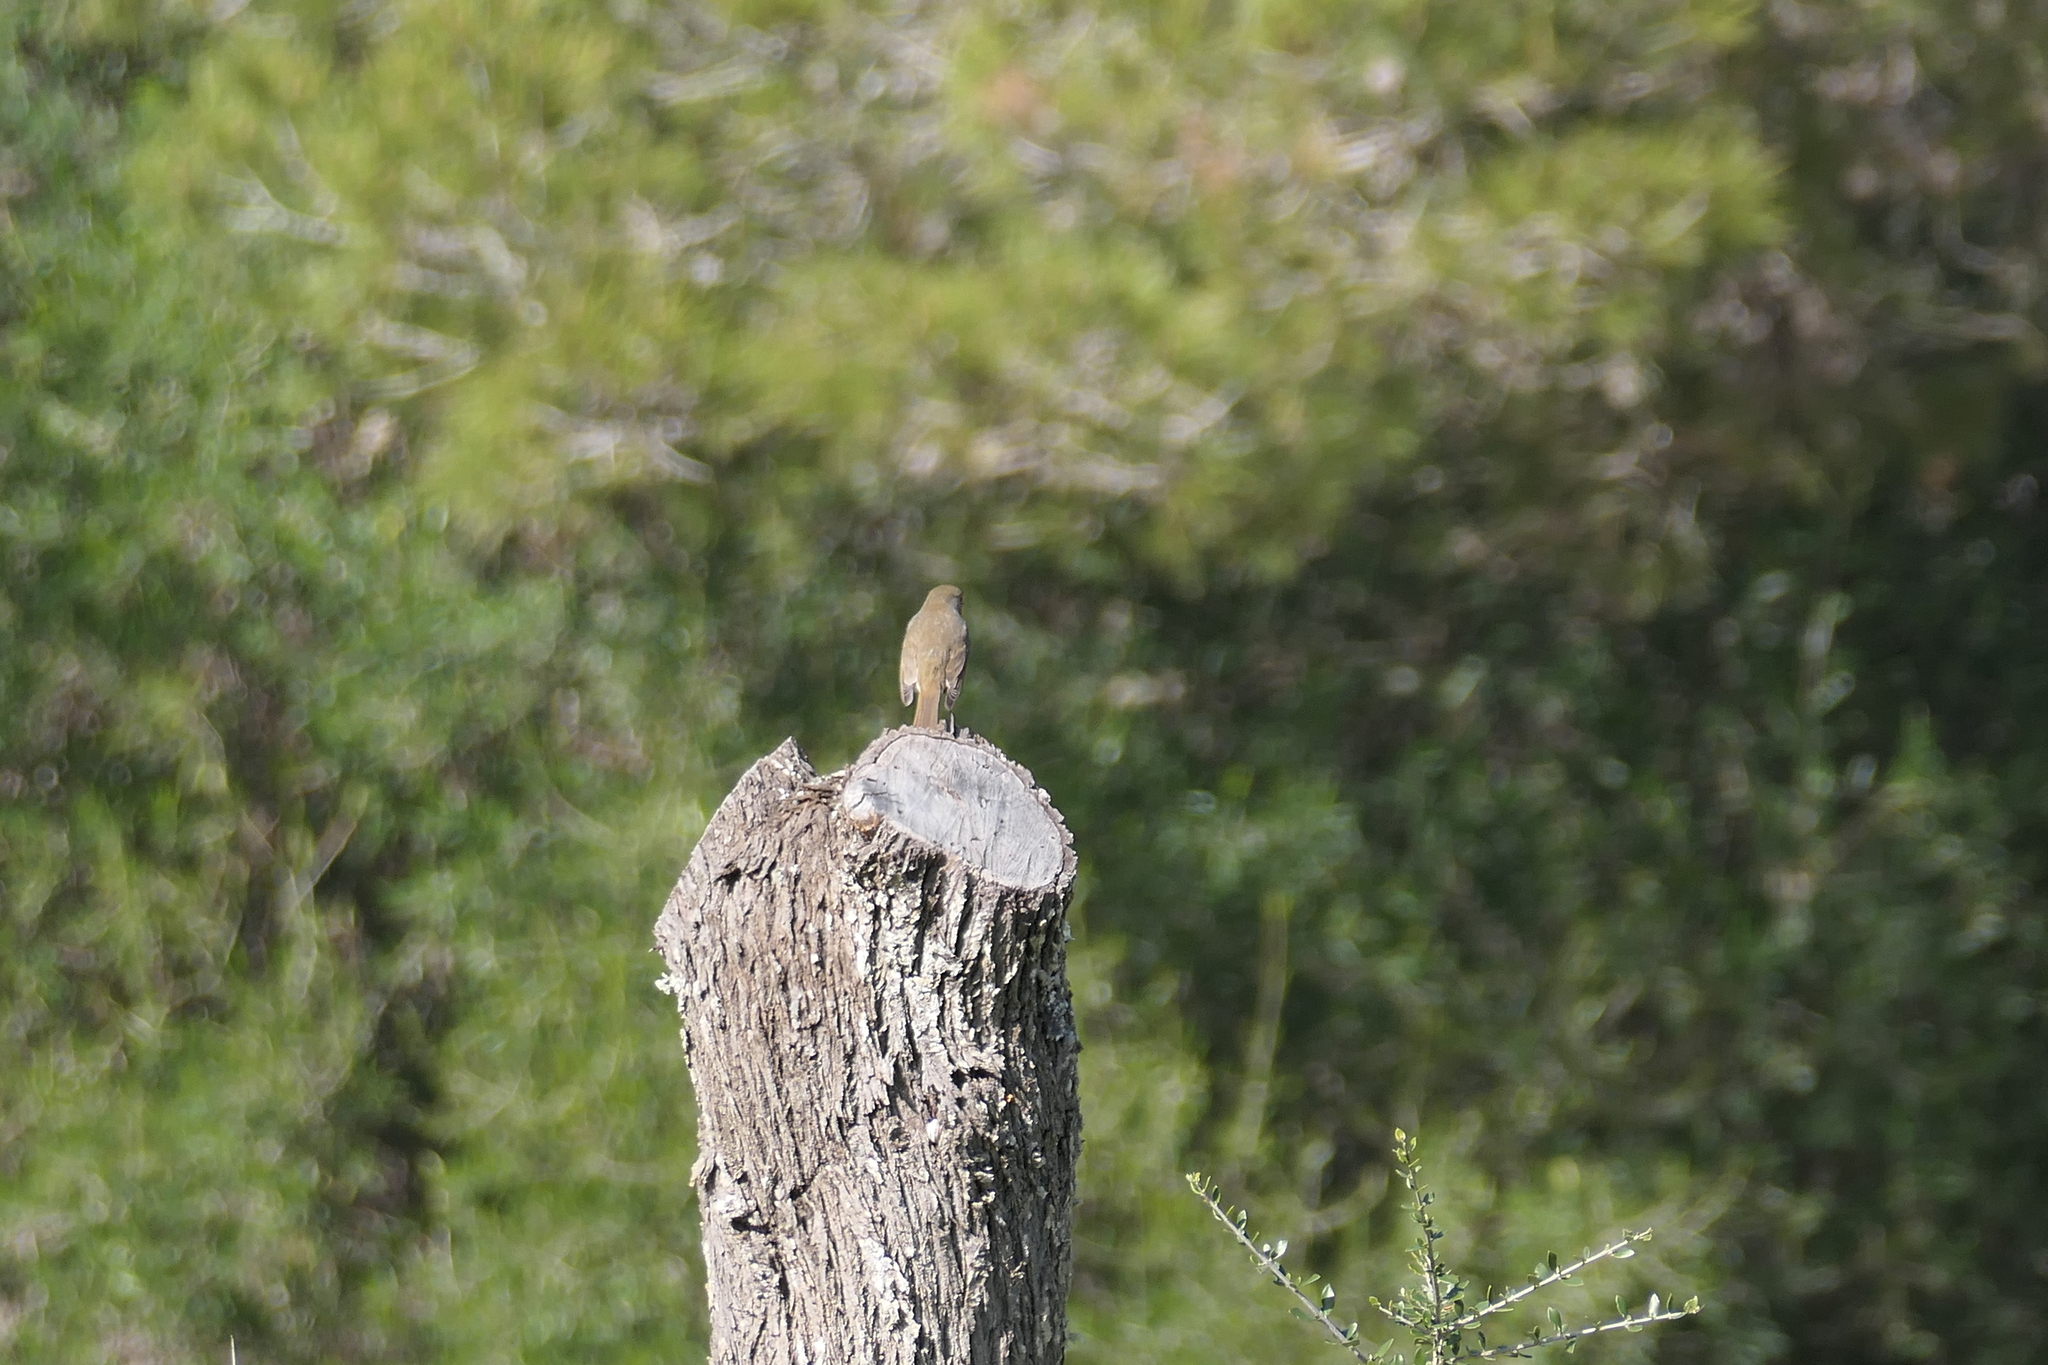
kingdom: Animalia
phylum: Chordata
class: Aves
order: Passeriformes
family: Muscicapidae
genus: Erithacus
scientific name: Erithacus rubecula
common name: European robin
